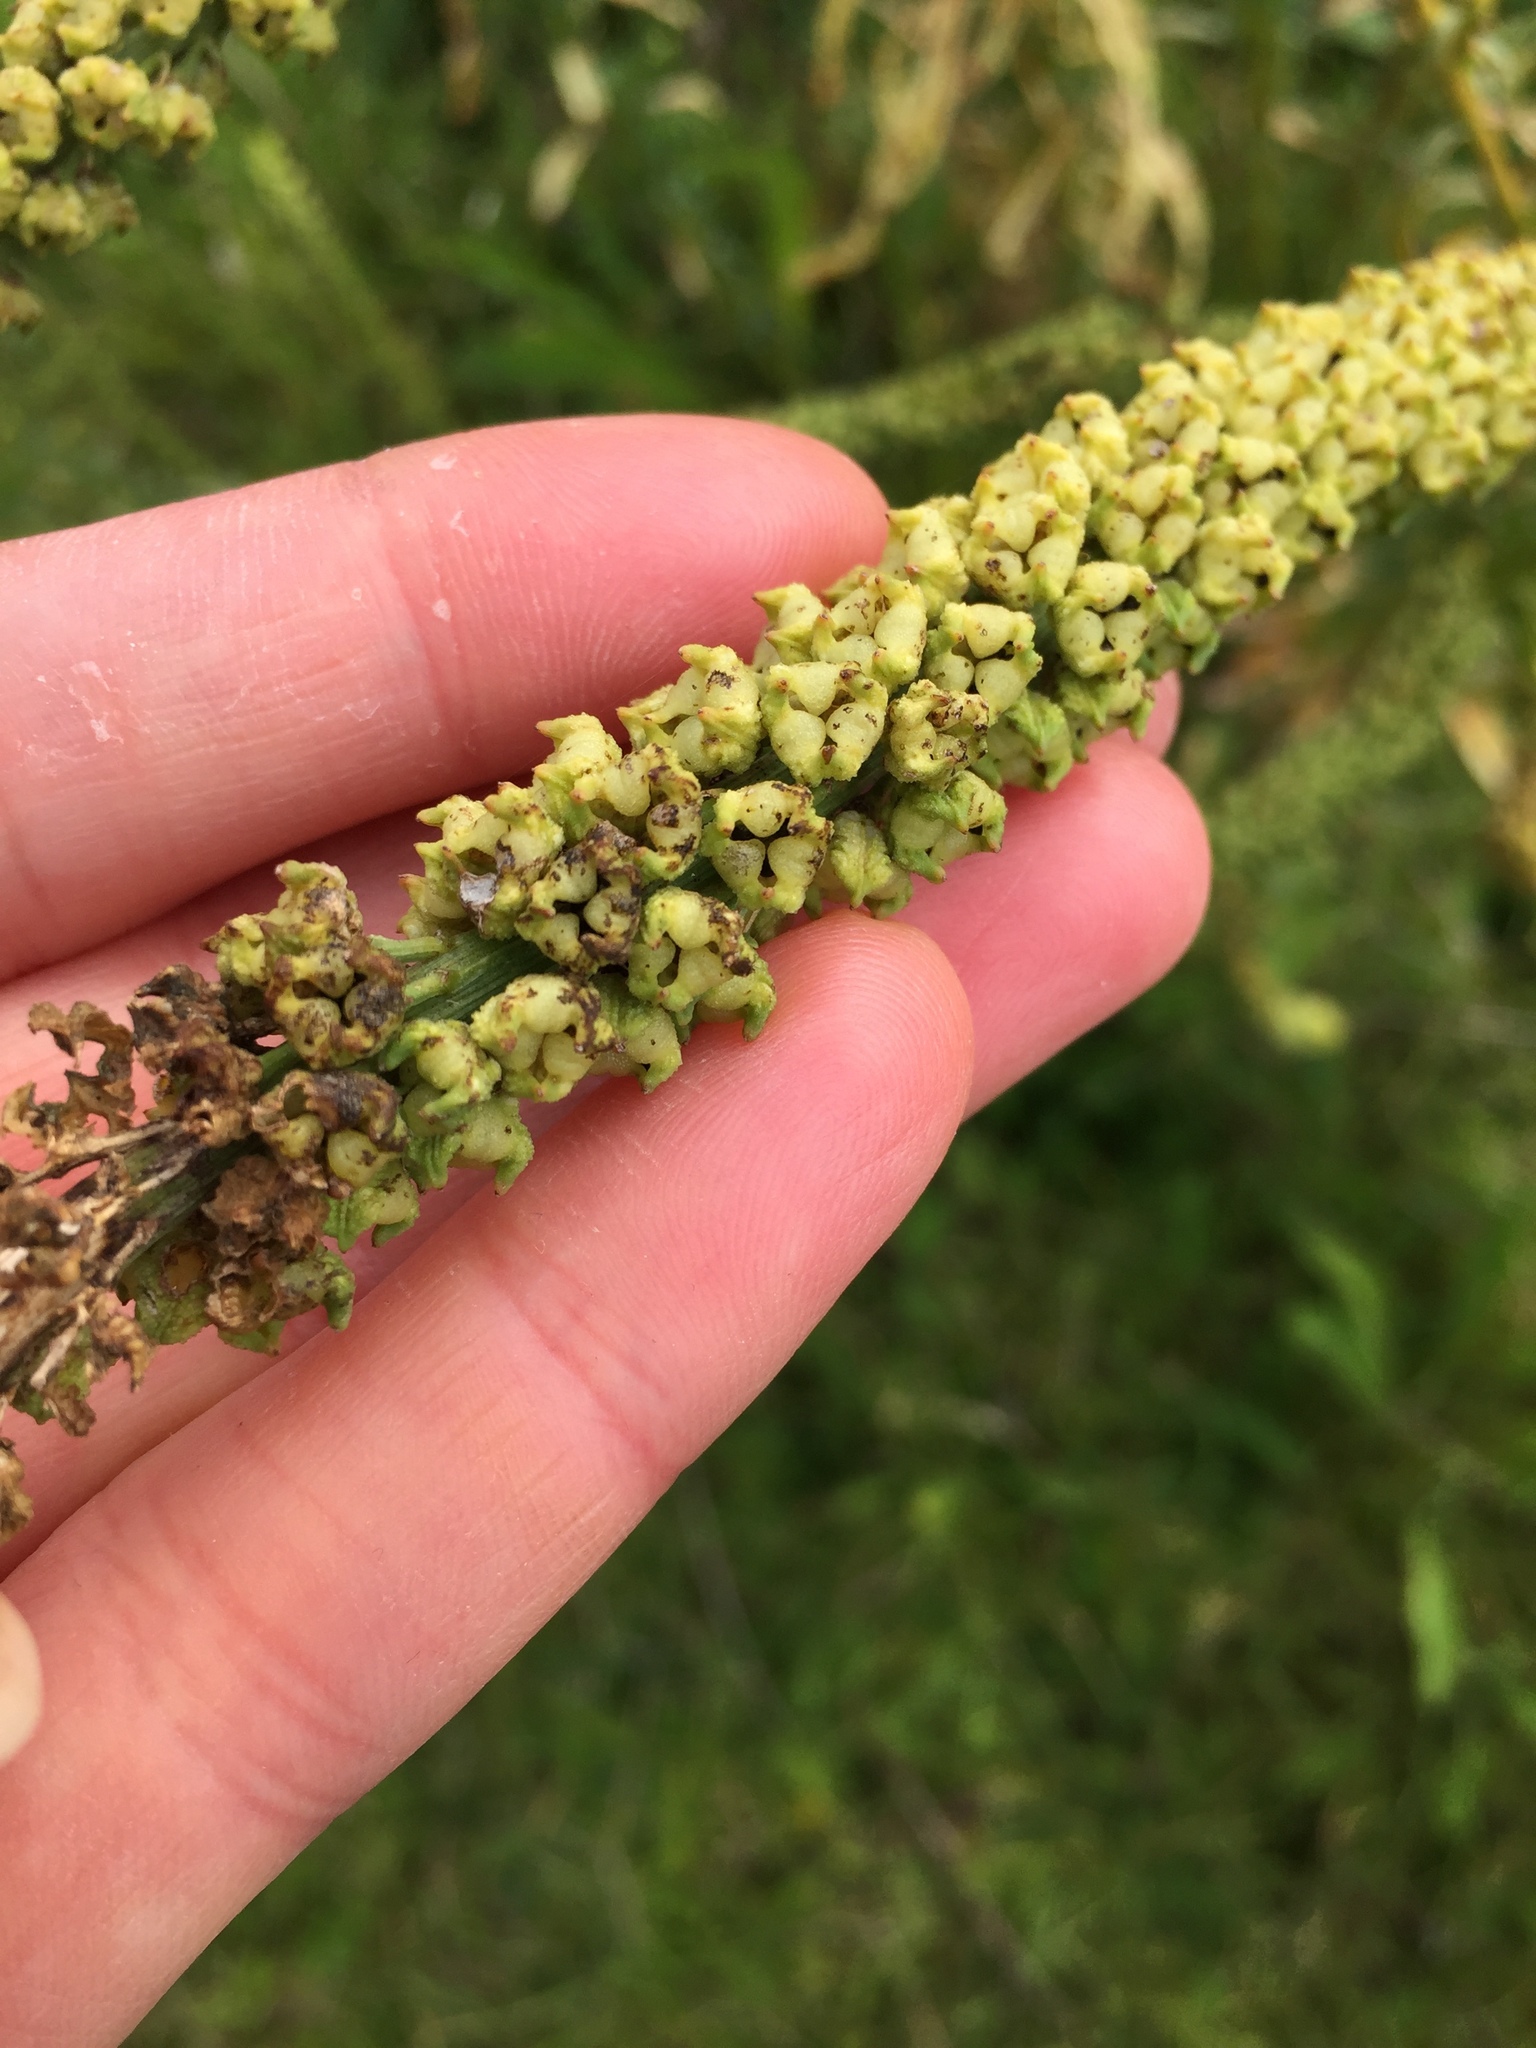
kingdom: Plantae
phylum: Tracheophyta
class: Magnoliopsida
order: Brassicales
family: Resedaceae
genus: Reseda
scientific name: Reseda luteola
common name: Weld
